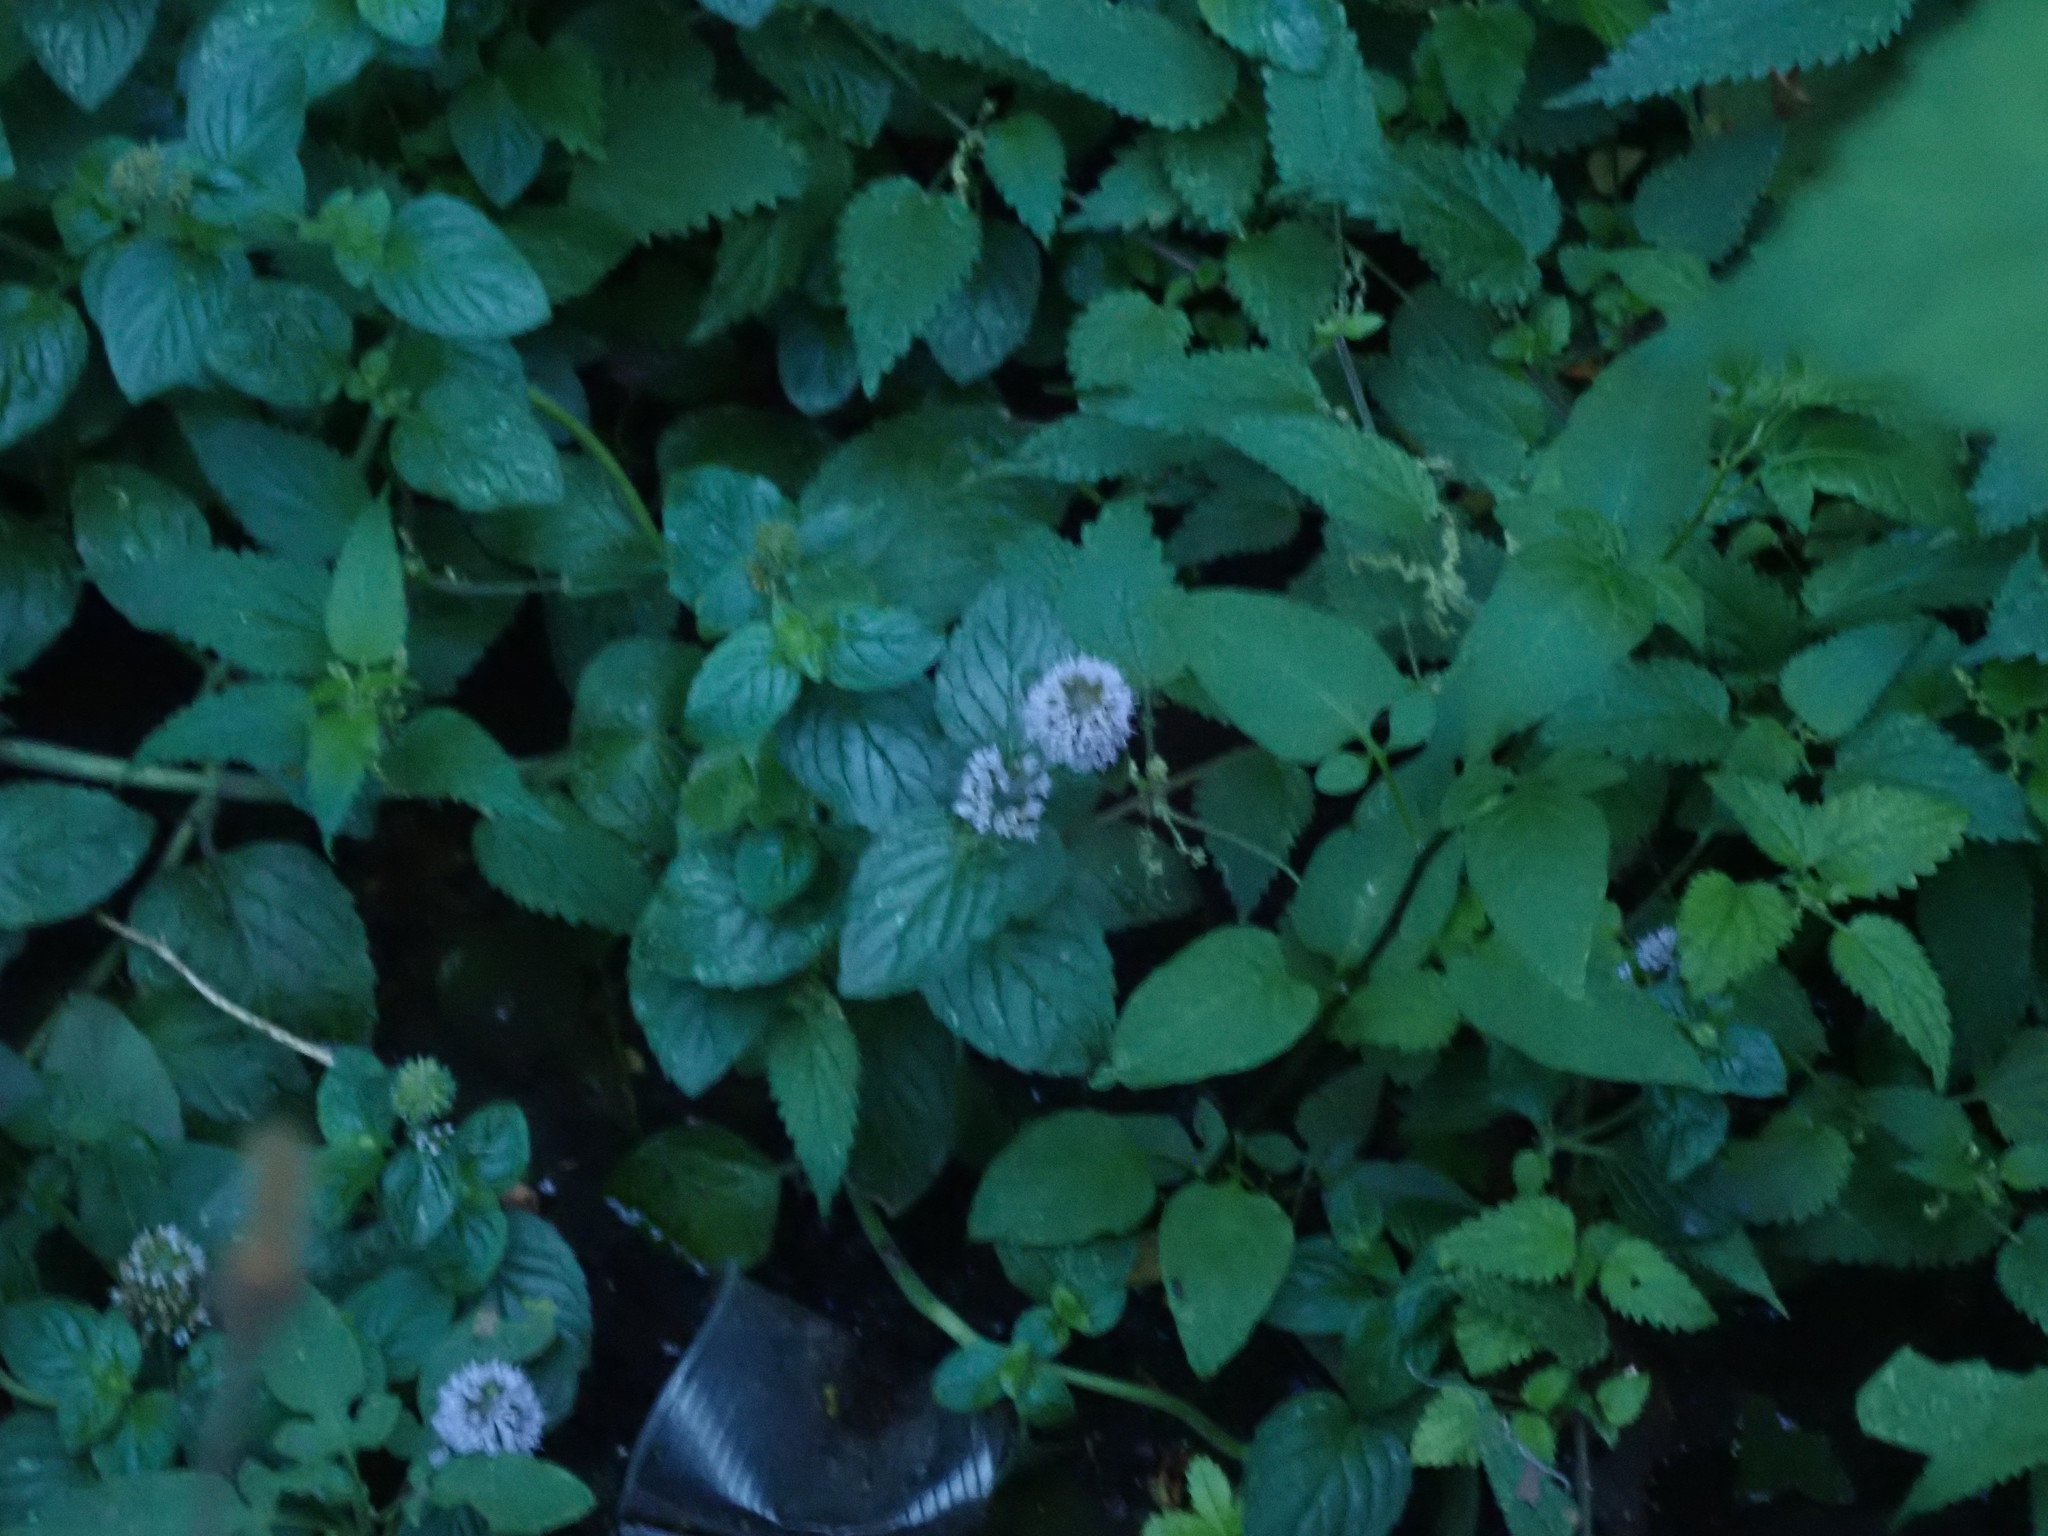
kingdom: Plantae
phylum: Tracheophyta
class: Magnoliopsida
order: Lamiales
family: Lamiaceae
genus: Mentha
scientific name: Mentha aquatica
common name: Water mint
